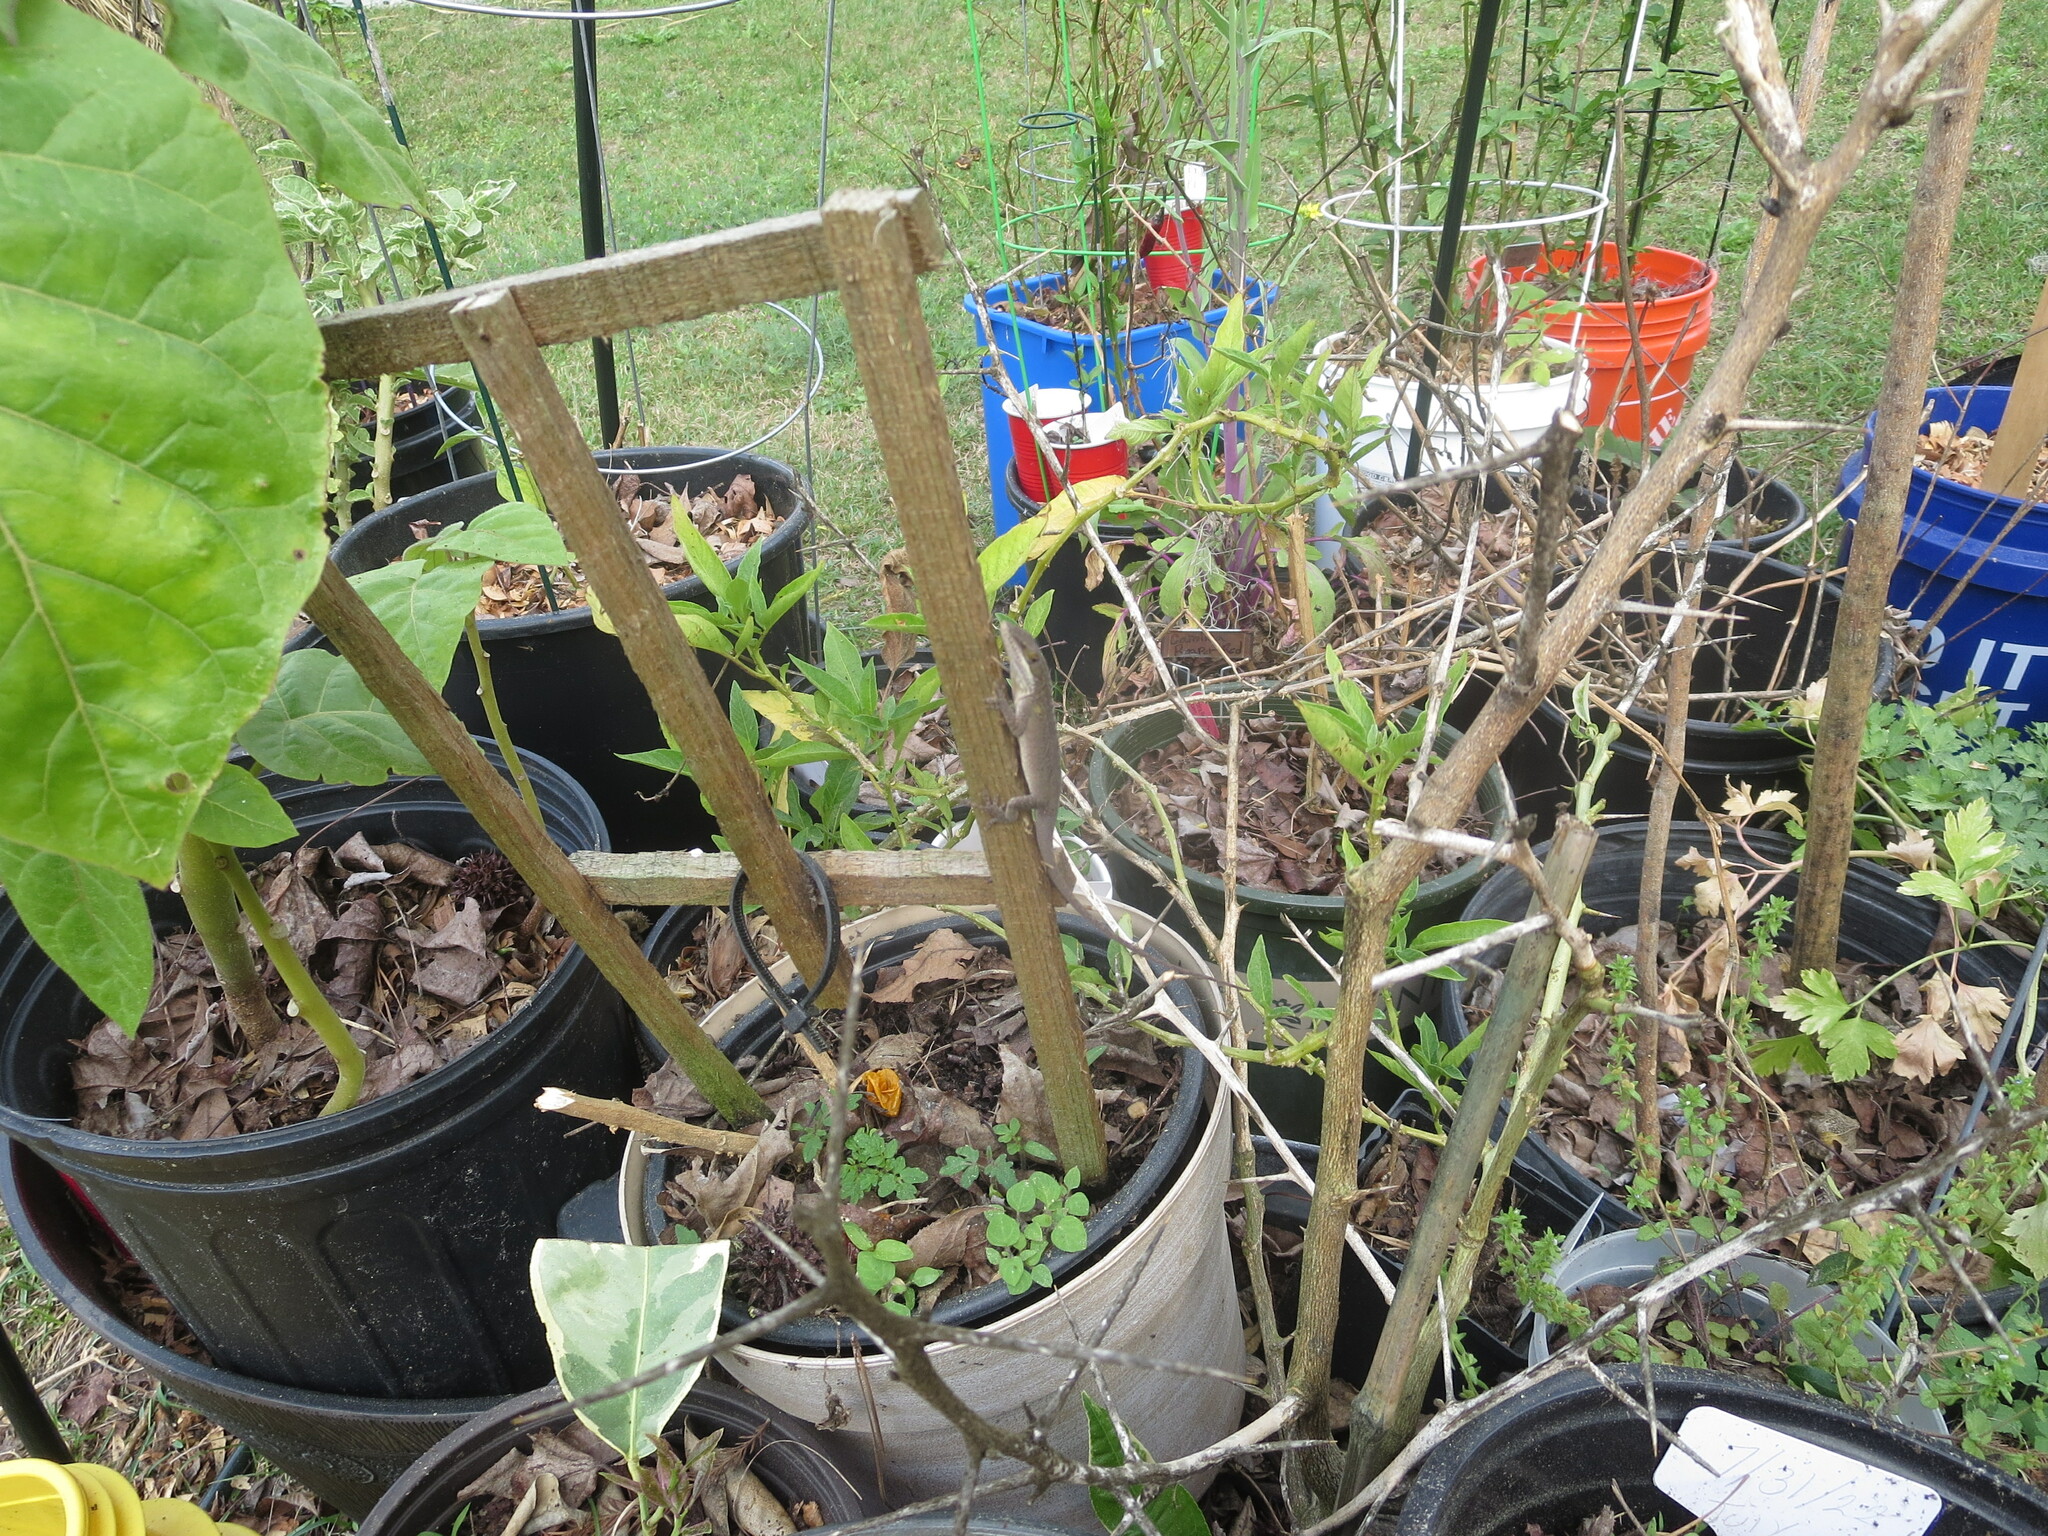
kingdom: Animalia
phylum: Chordata
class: Squamata
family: Dactyloidae
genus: Anolis
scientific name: Anolis carolinensis
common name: Green anole
